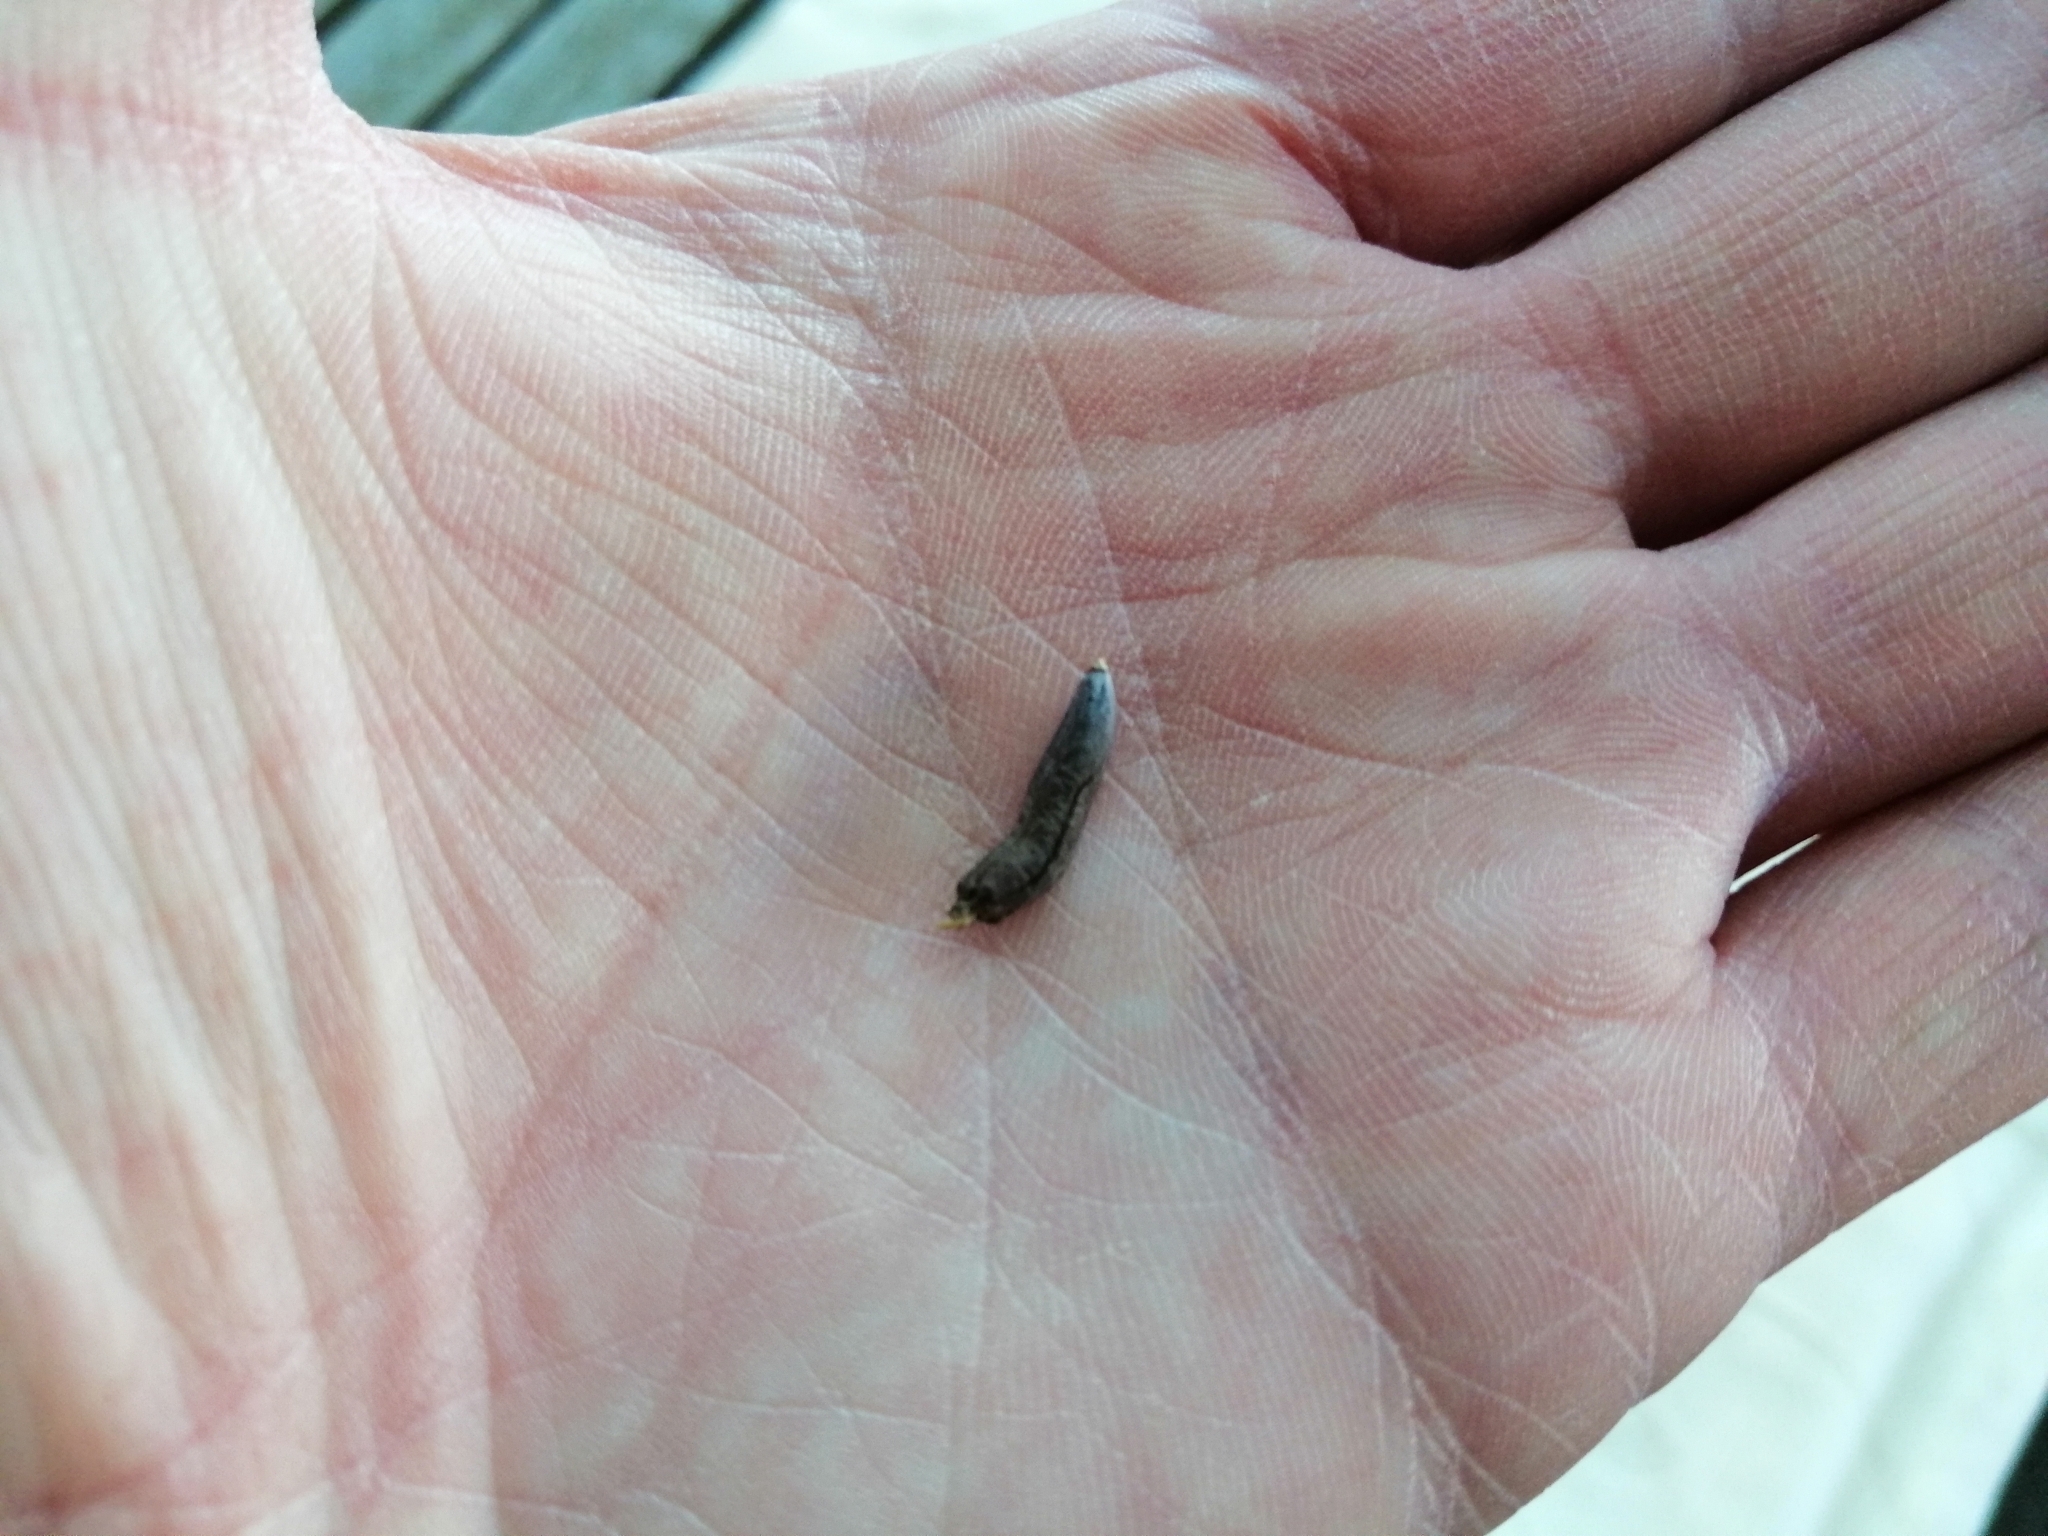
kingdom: Fungi
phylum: Ascomycota
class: Sordariomycetes
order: Hypocreales
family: Clavicipitaceae
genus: Claviceps
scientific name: Claviceps purpurea
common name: Rye ergot
